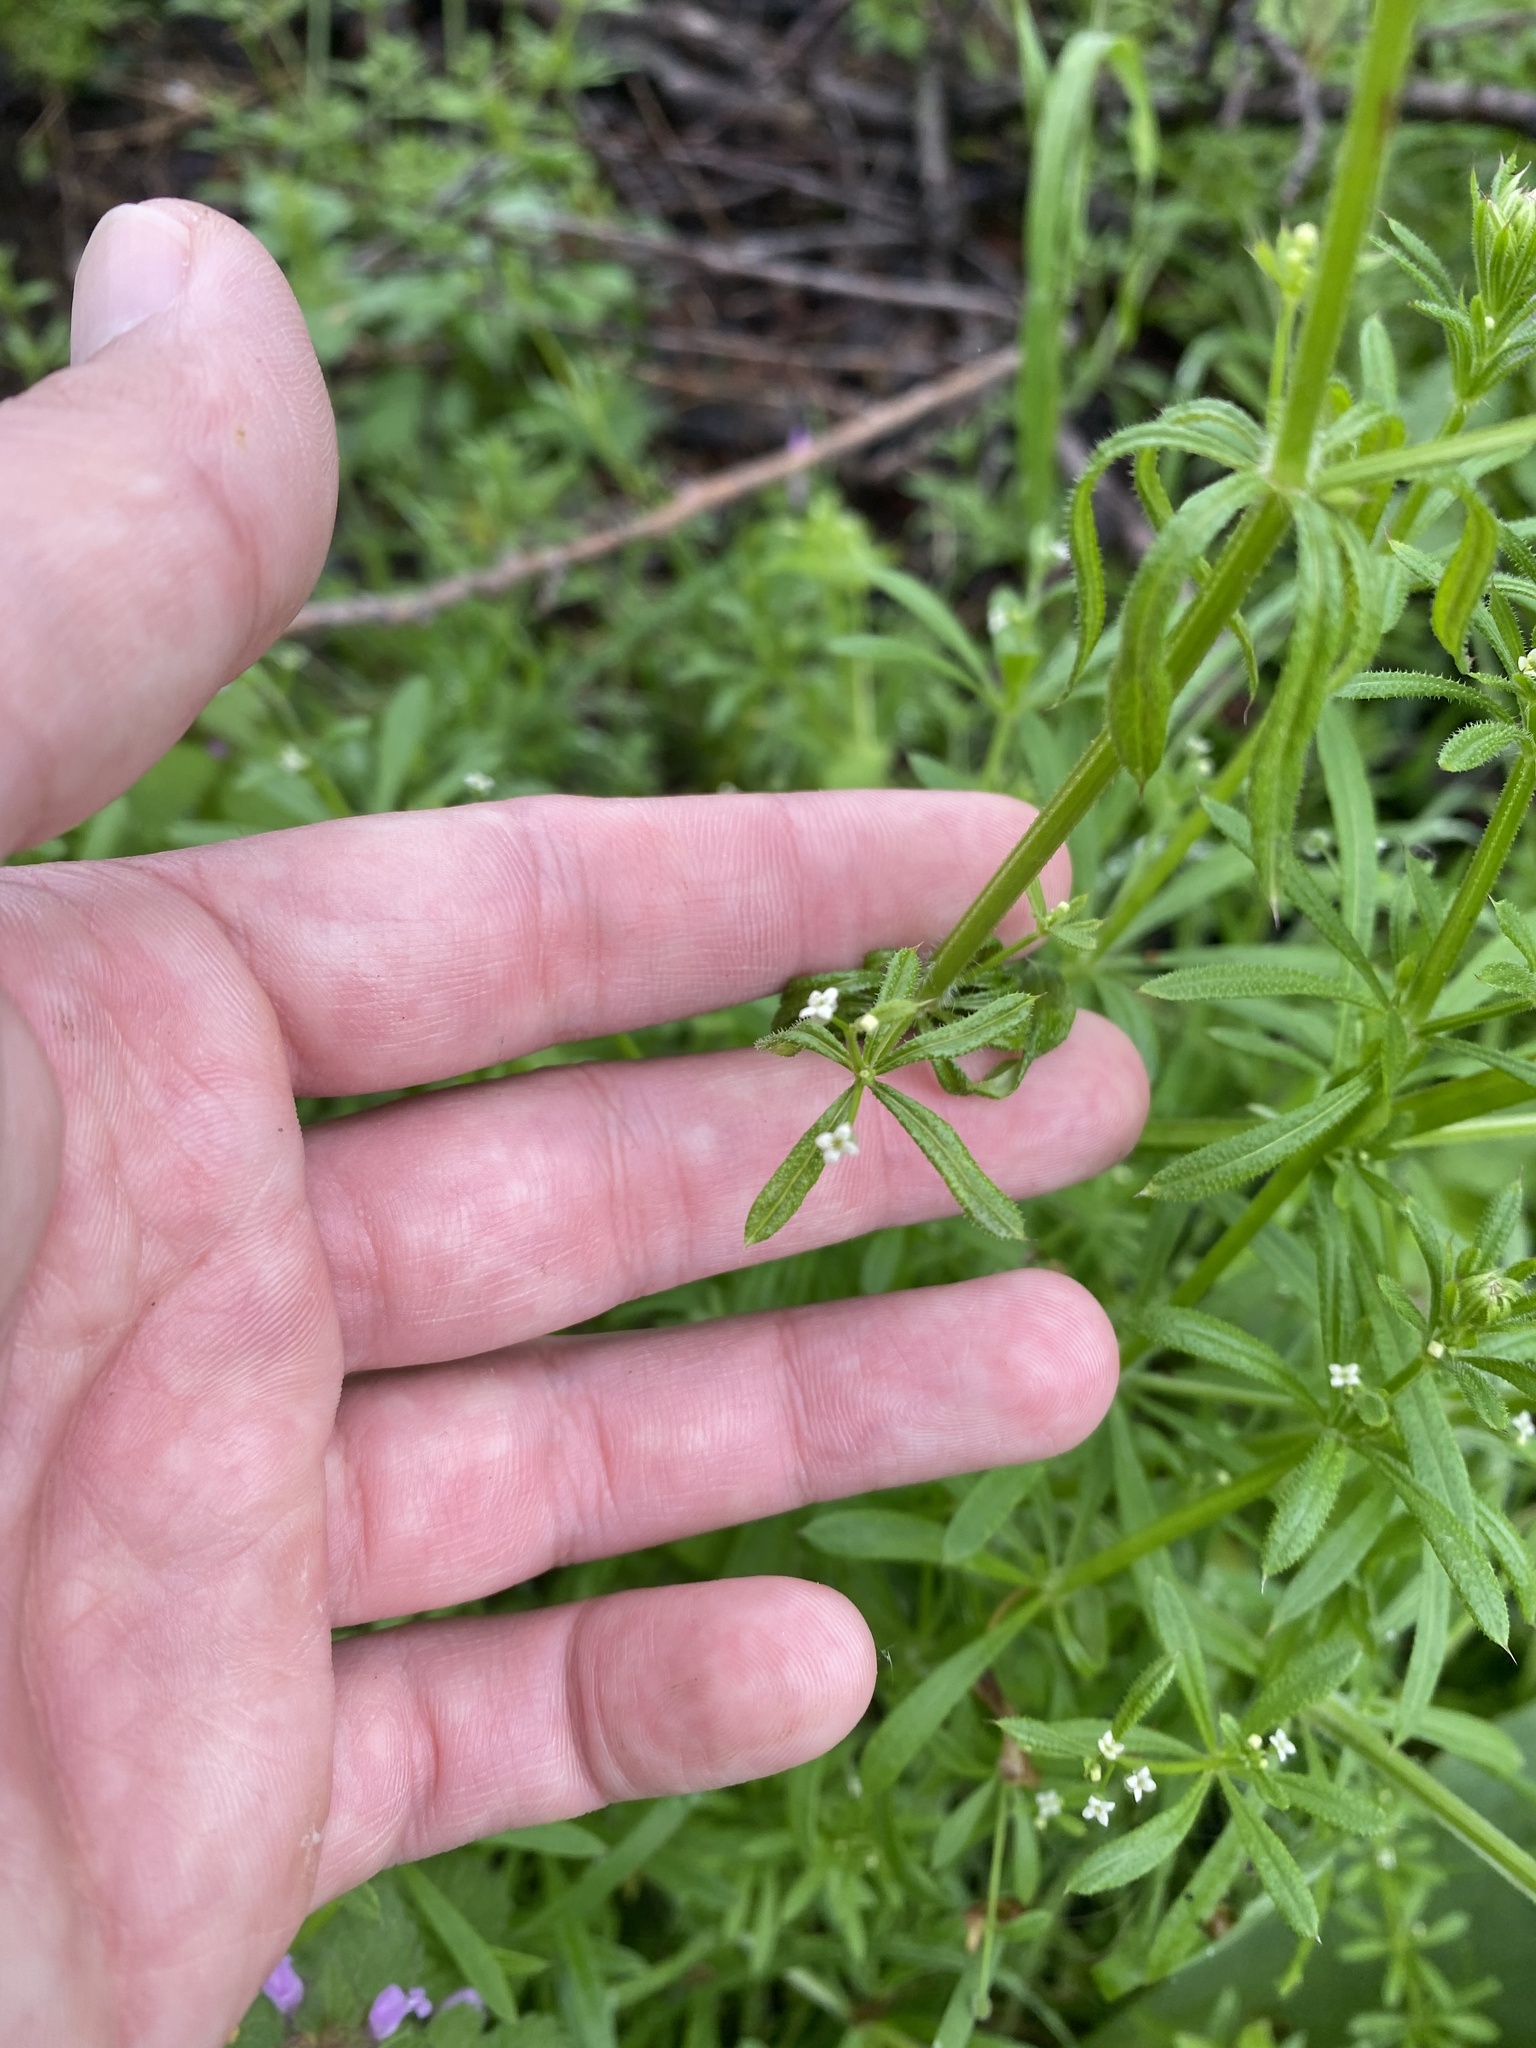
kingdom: Plantae
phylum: Tracheophyta
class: Magnoliopsida
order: Gentianales
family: Rubiaceae
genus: Galium
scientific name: Galium aparine
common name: Cleavers
